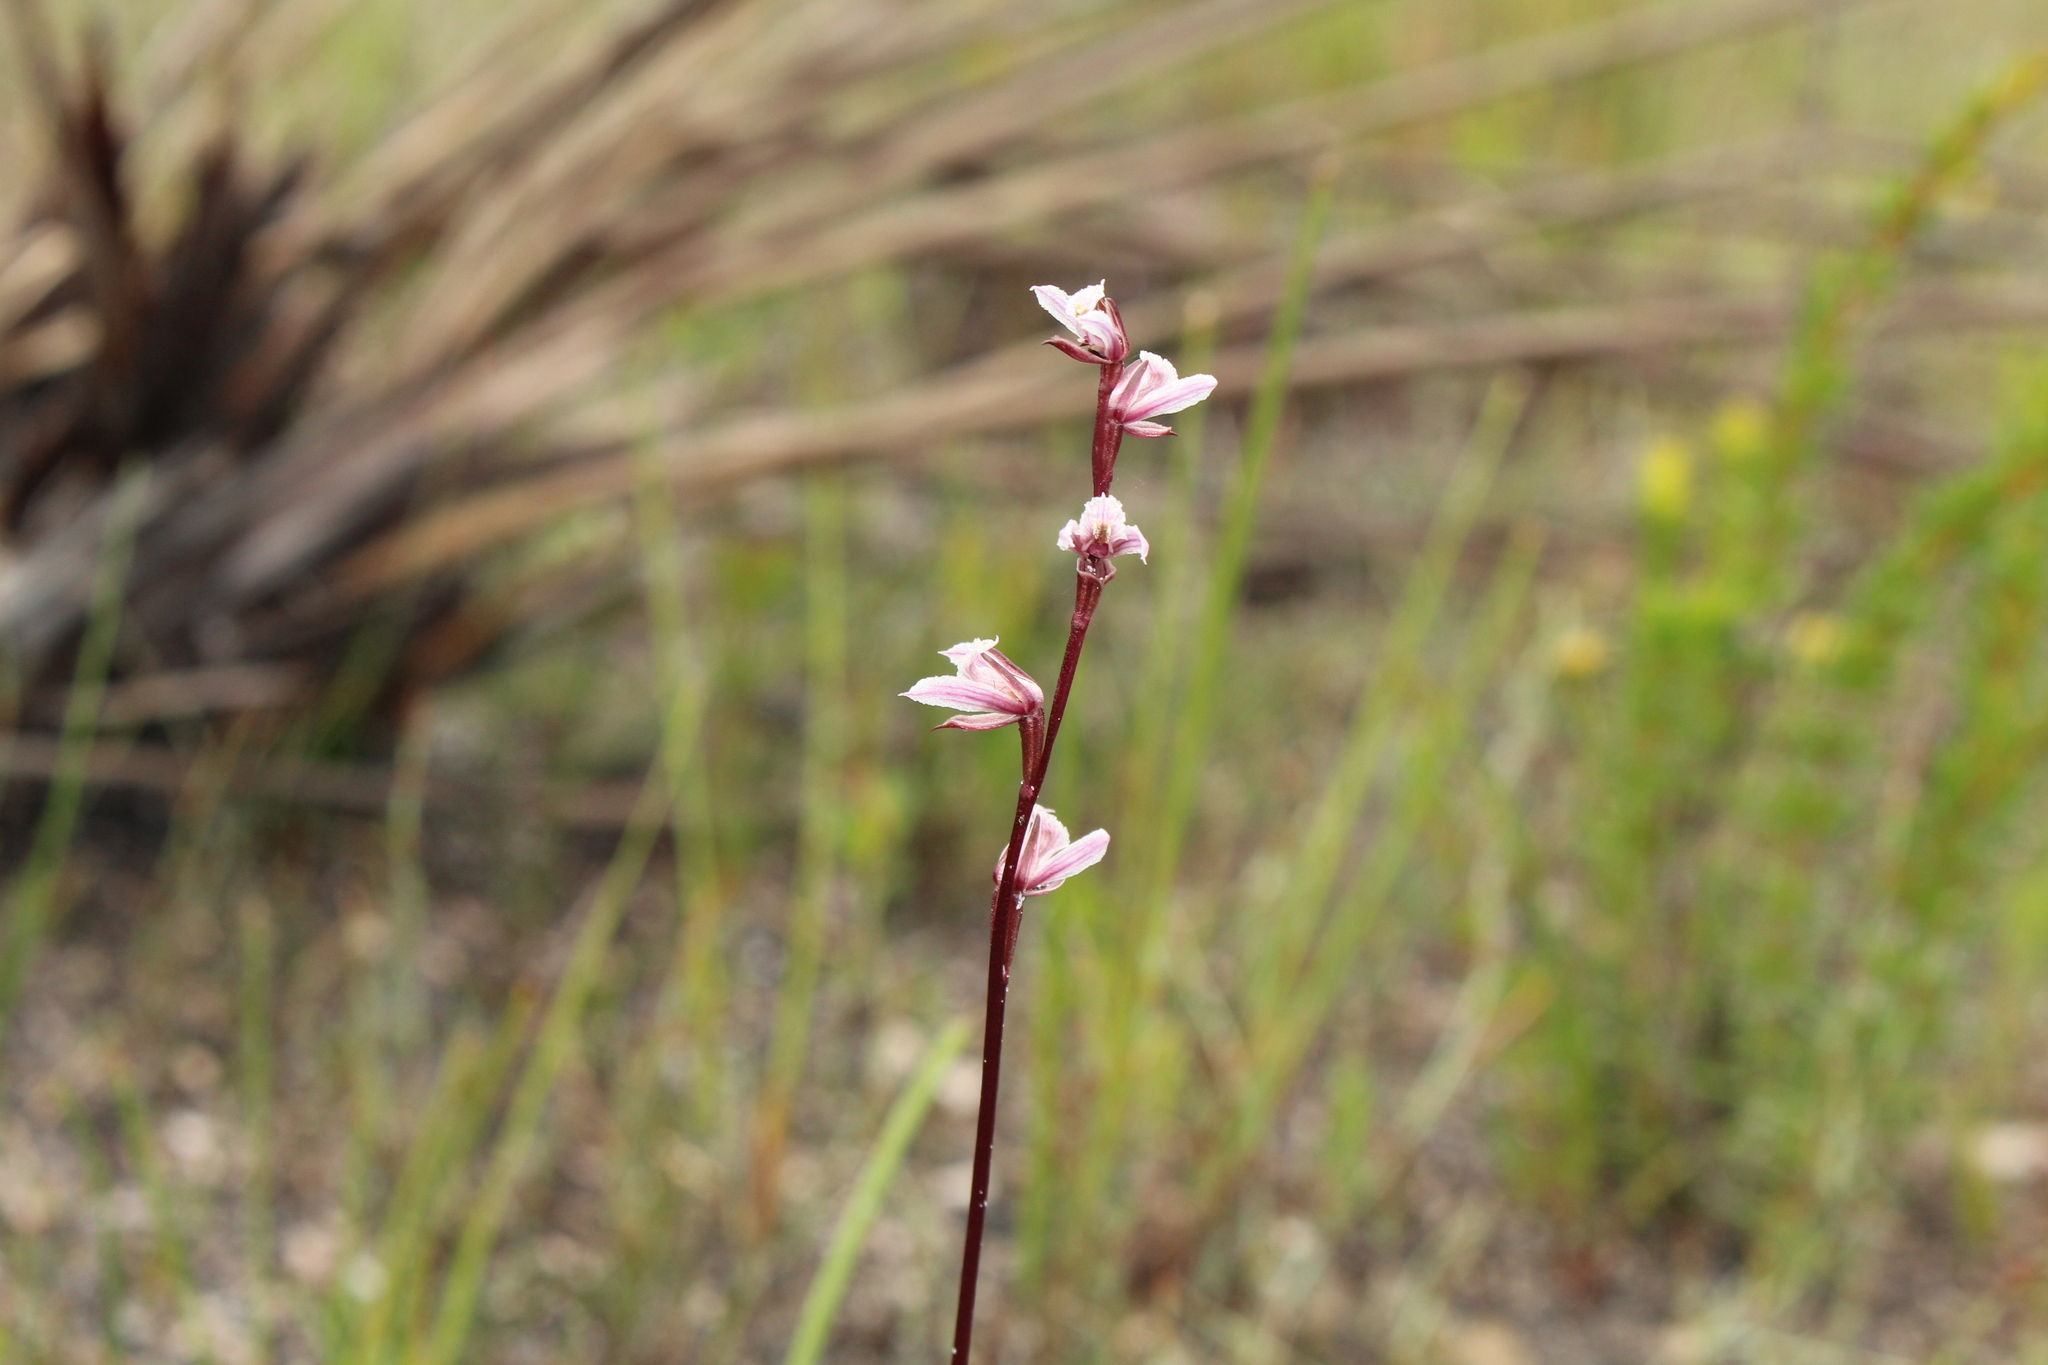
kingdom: Plantae
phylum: Tracheophyta
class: Liliopsida
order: Asparagales
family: Orchidaceae
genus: Prasophyllum
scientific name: Prasophyllum hians
